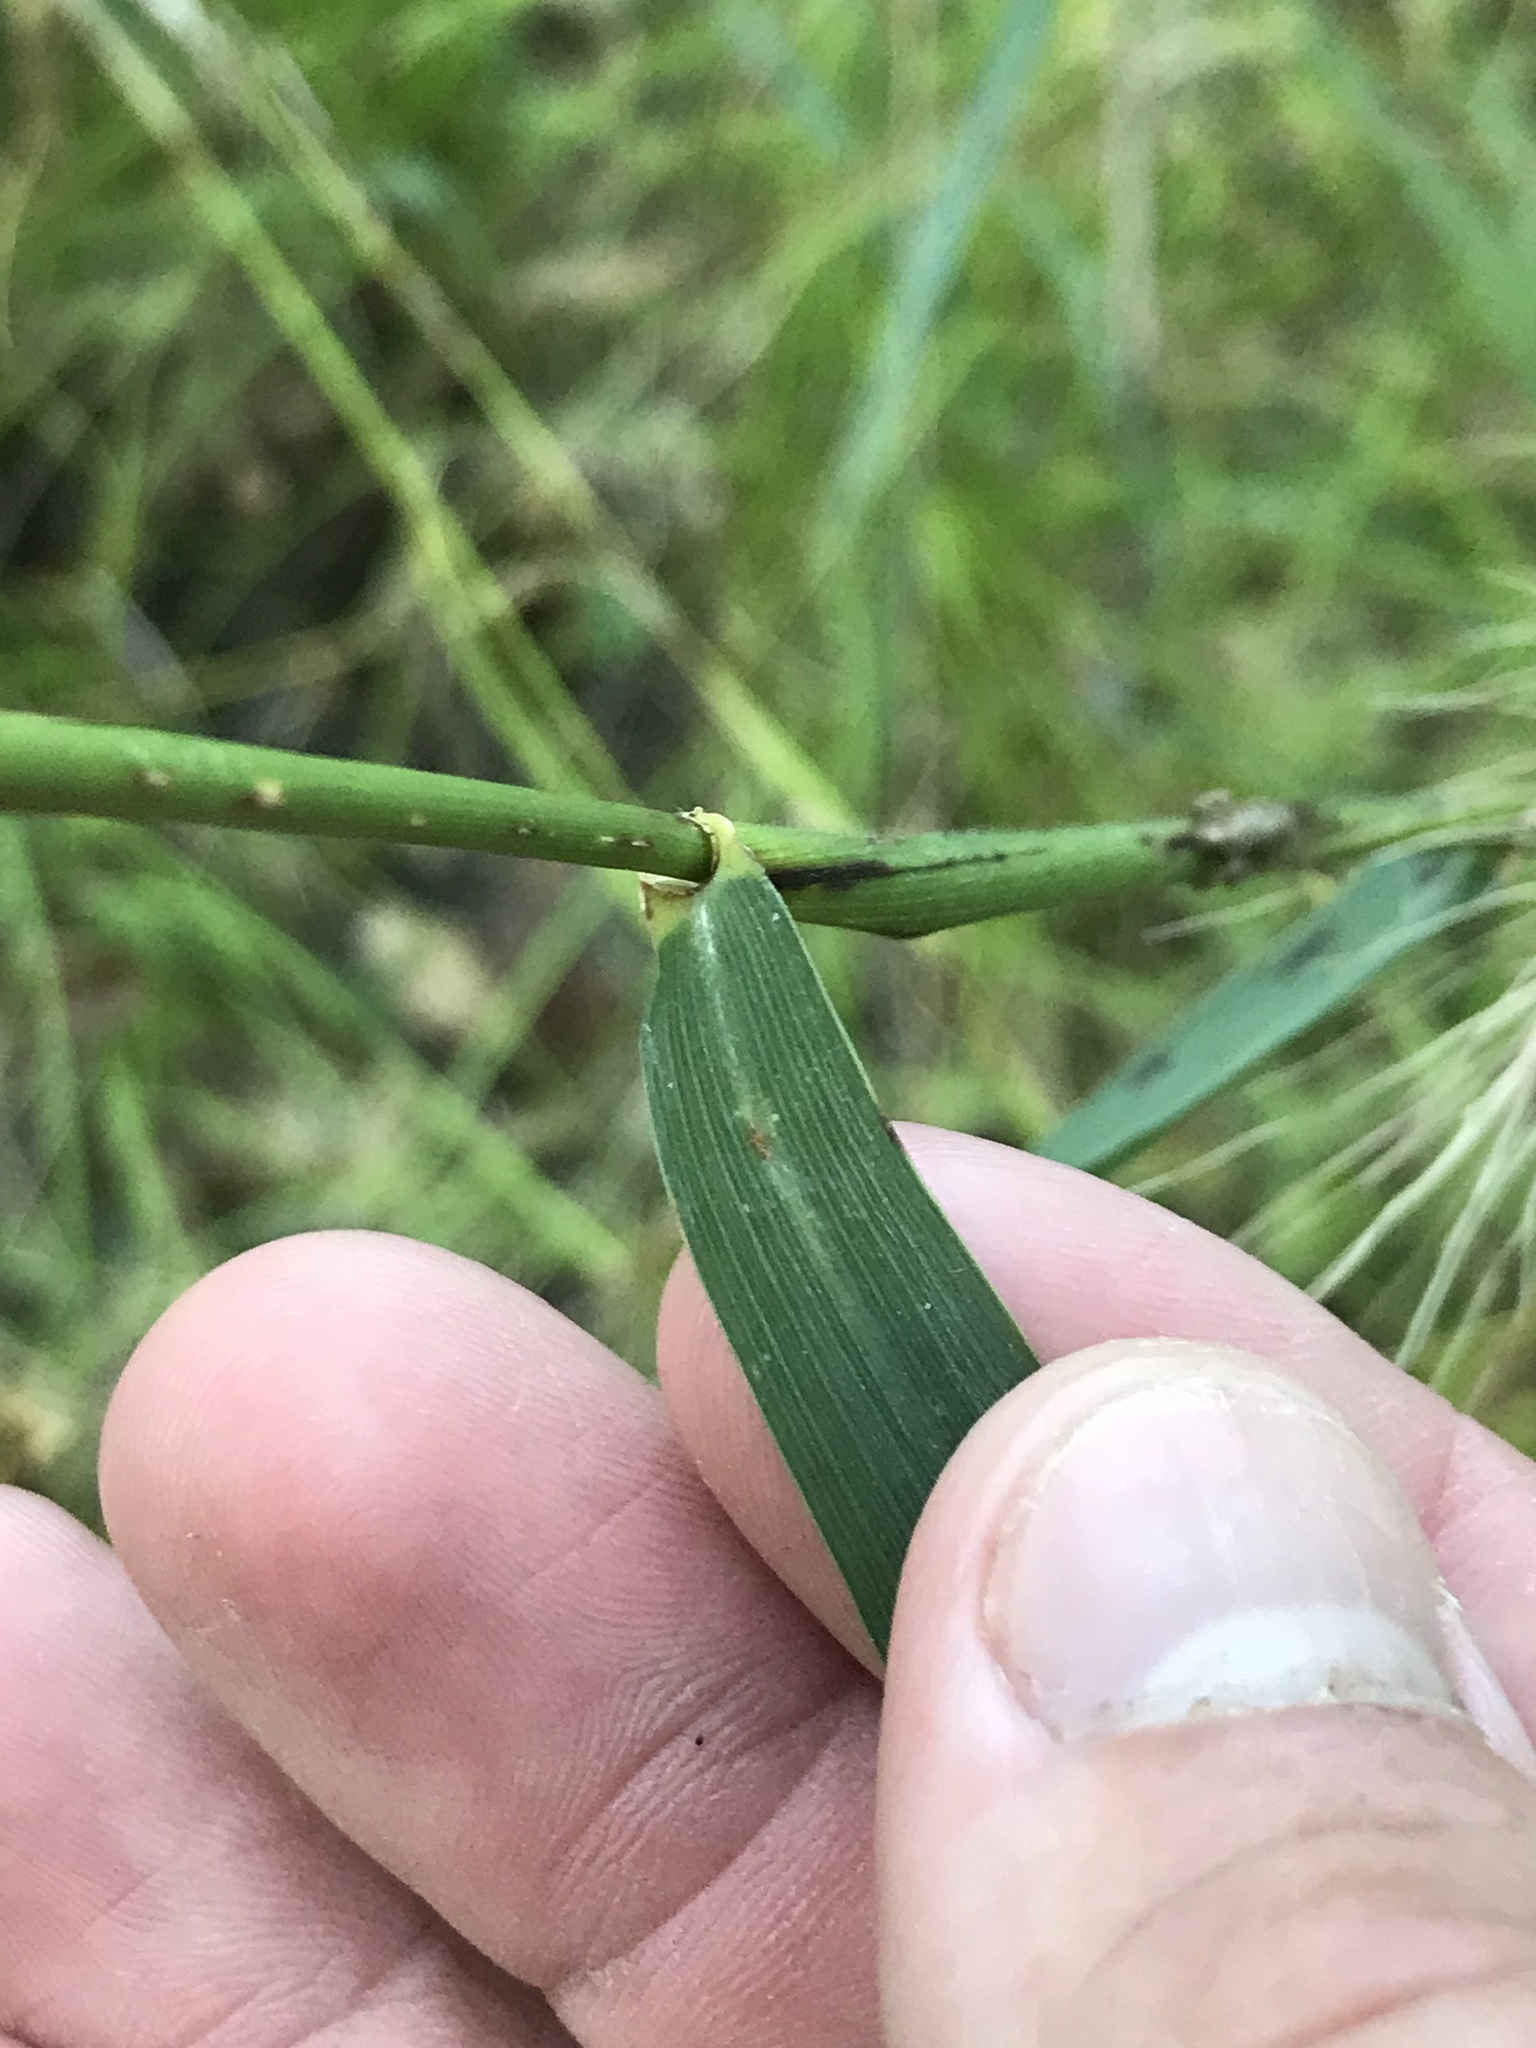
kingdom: Plantae
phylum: Tracheophyta
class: Liliopsida
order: Poales
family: Poaceae
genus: Elymus
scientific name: Elymus canadensis
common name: Canada wild rye
